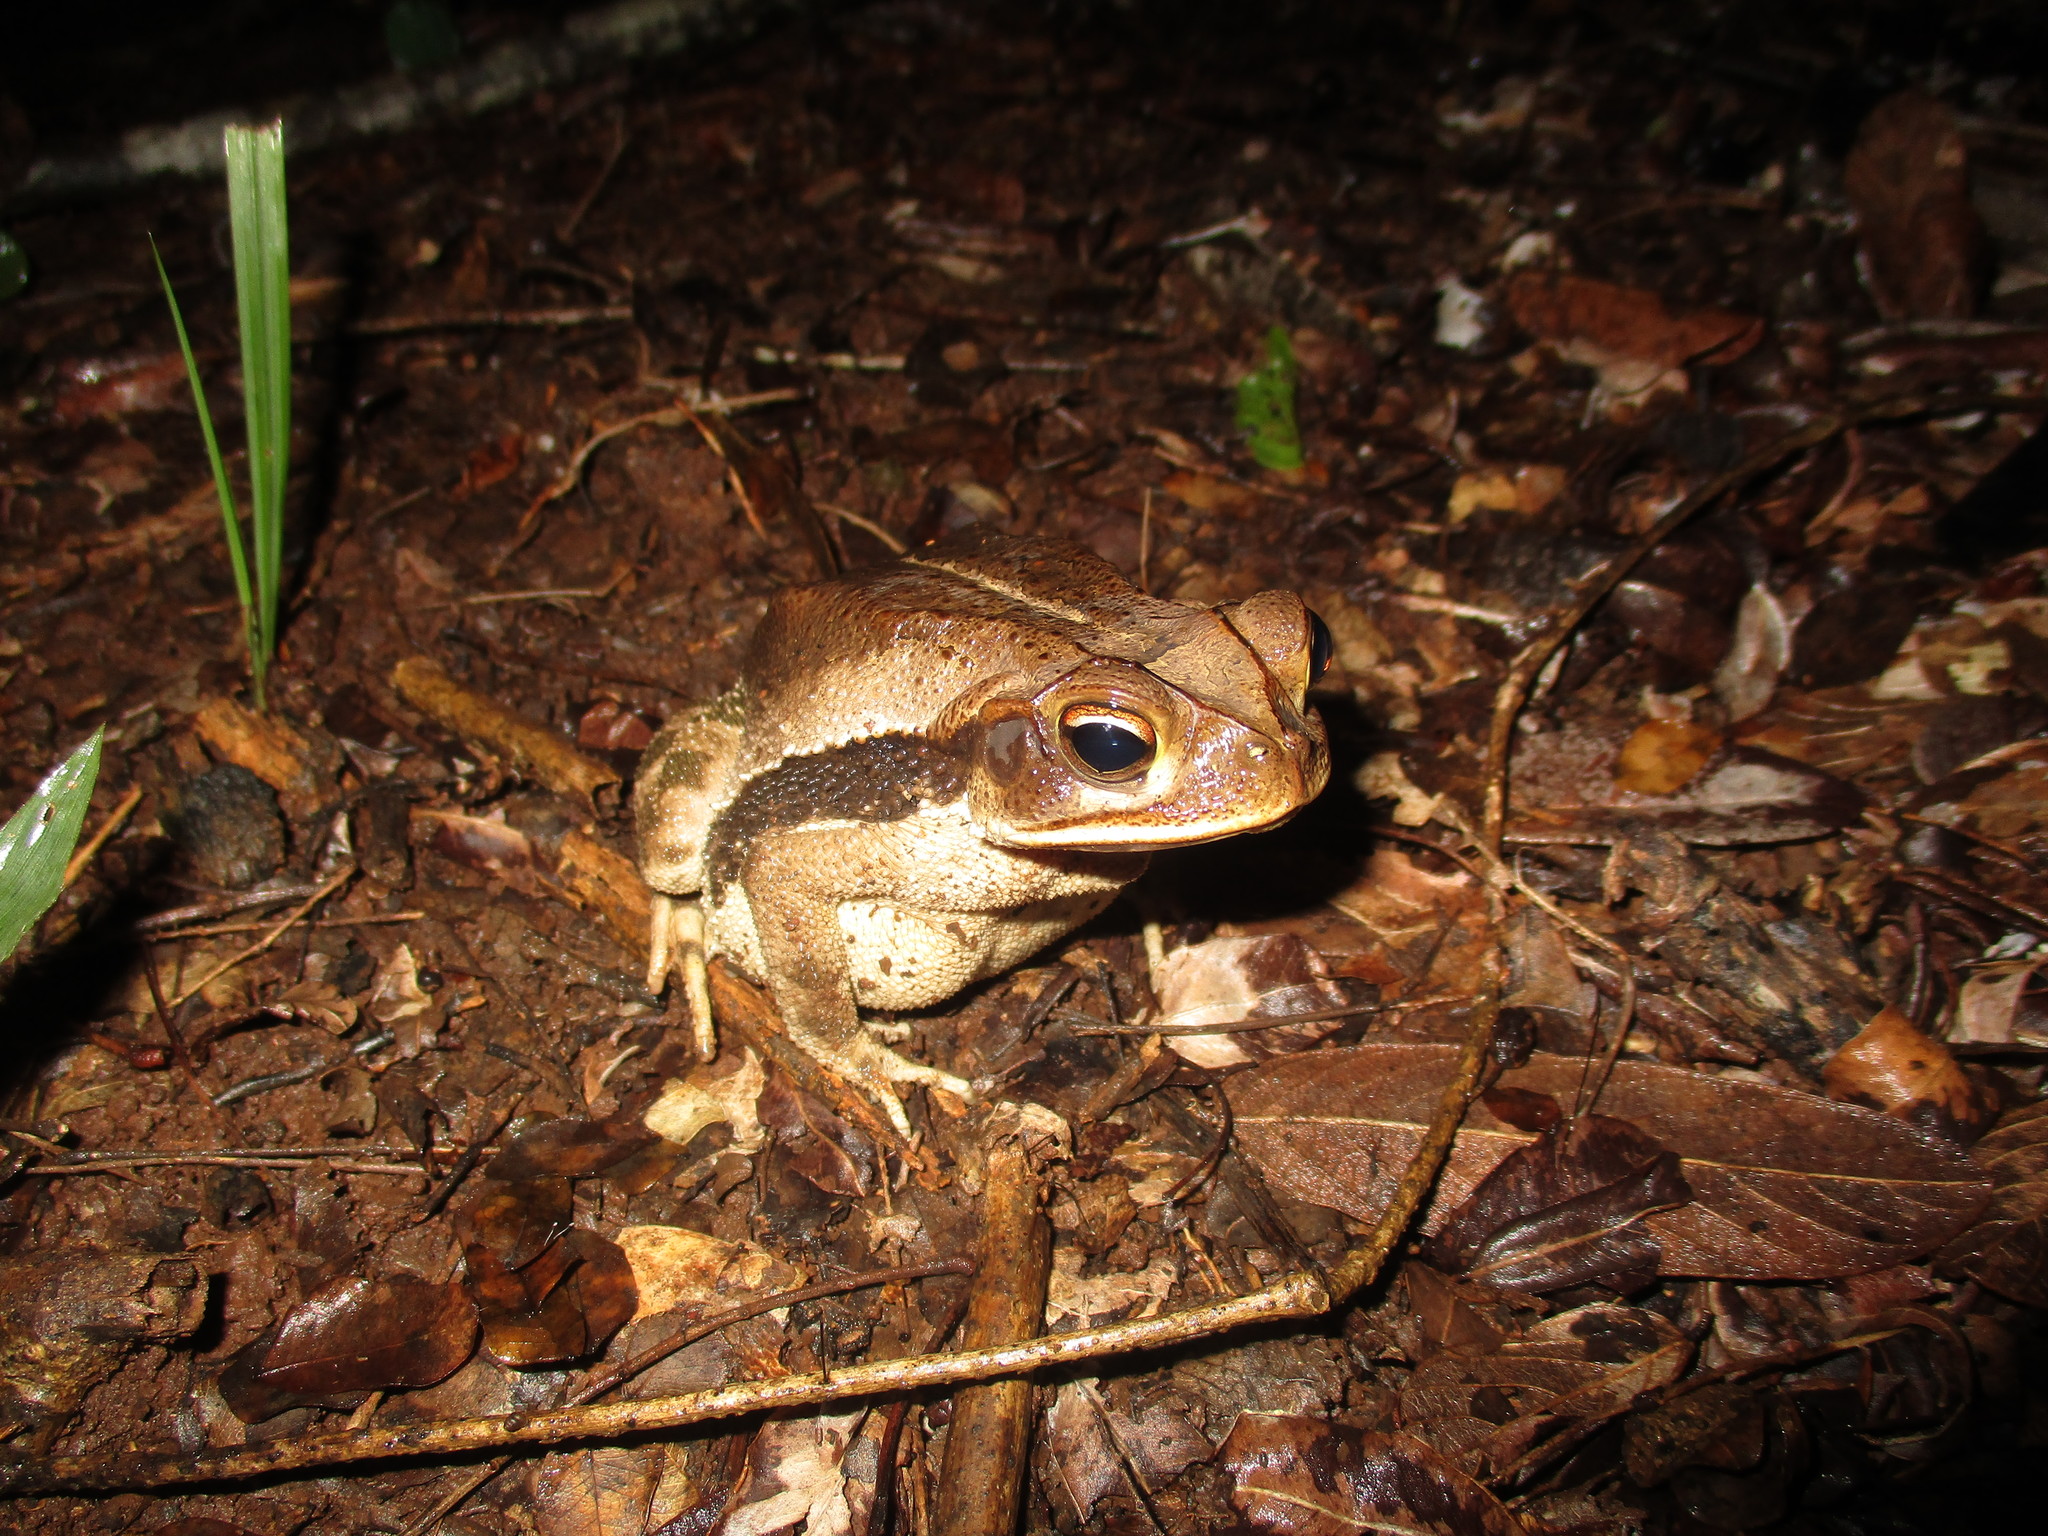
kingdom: Animalia
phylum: Chordata
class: Amphibia
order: Anura
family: Bufonidae
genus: Incilius
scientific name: Incilius valliceps
